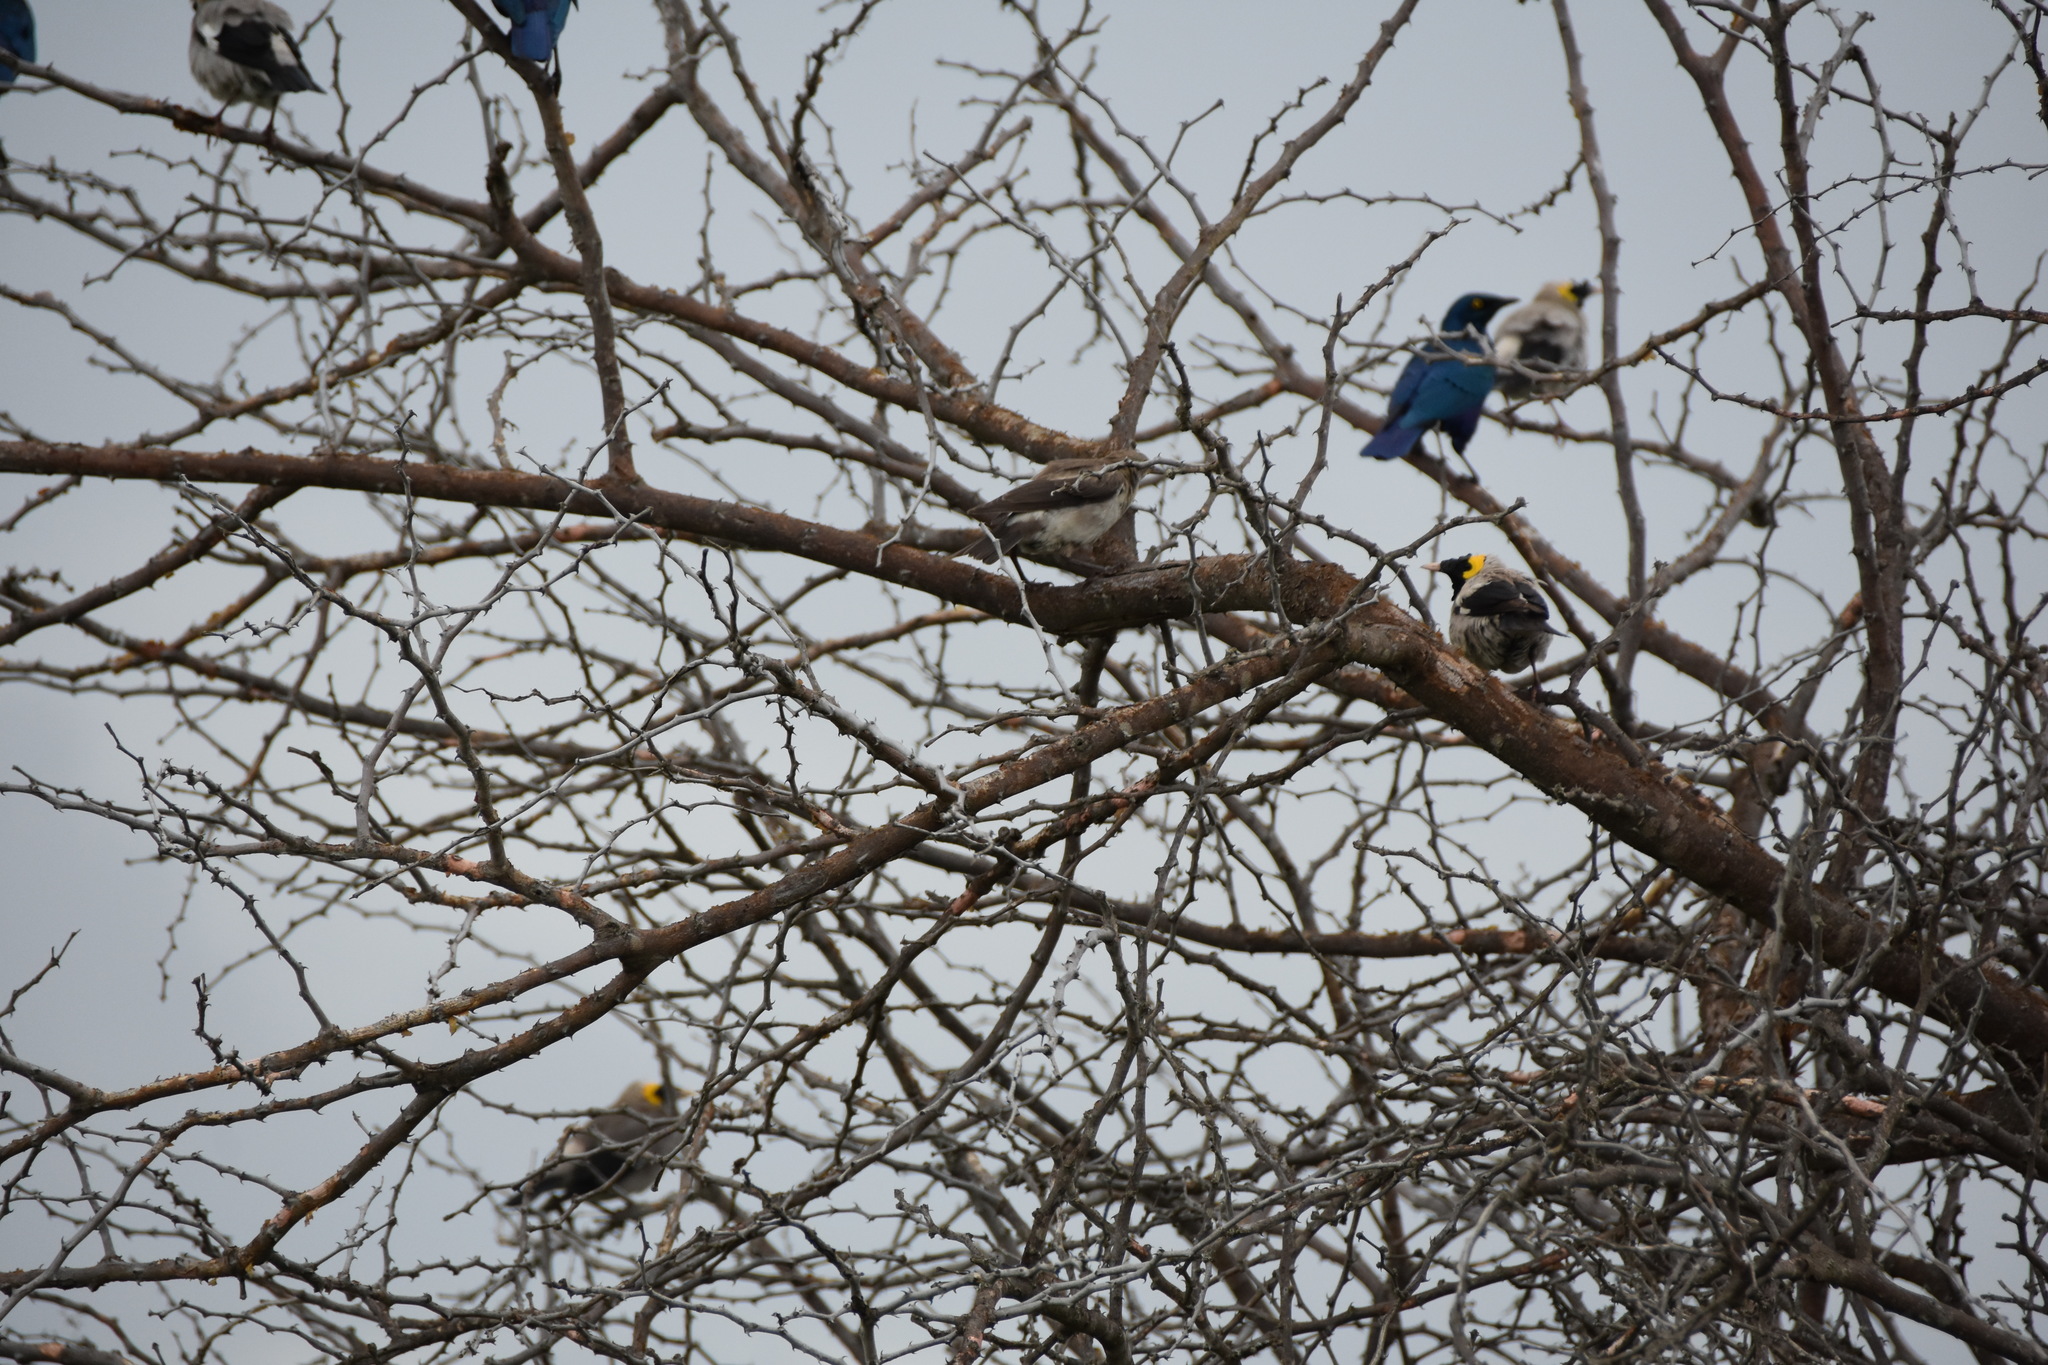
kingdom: Animalia
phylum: Chordata
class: Aves
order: Passeriformes
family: Sturnidae
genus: Creatophora
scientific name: Creatophora cinerea
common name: Wattled starling
